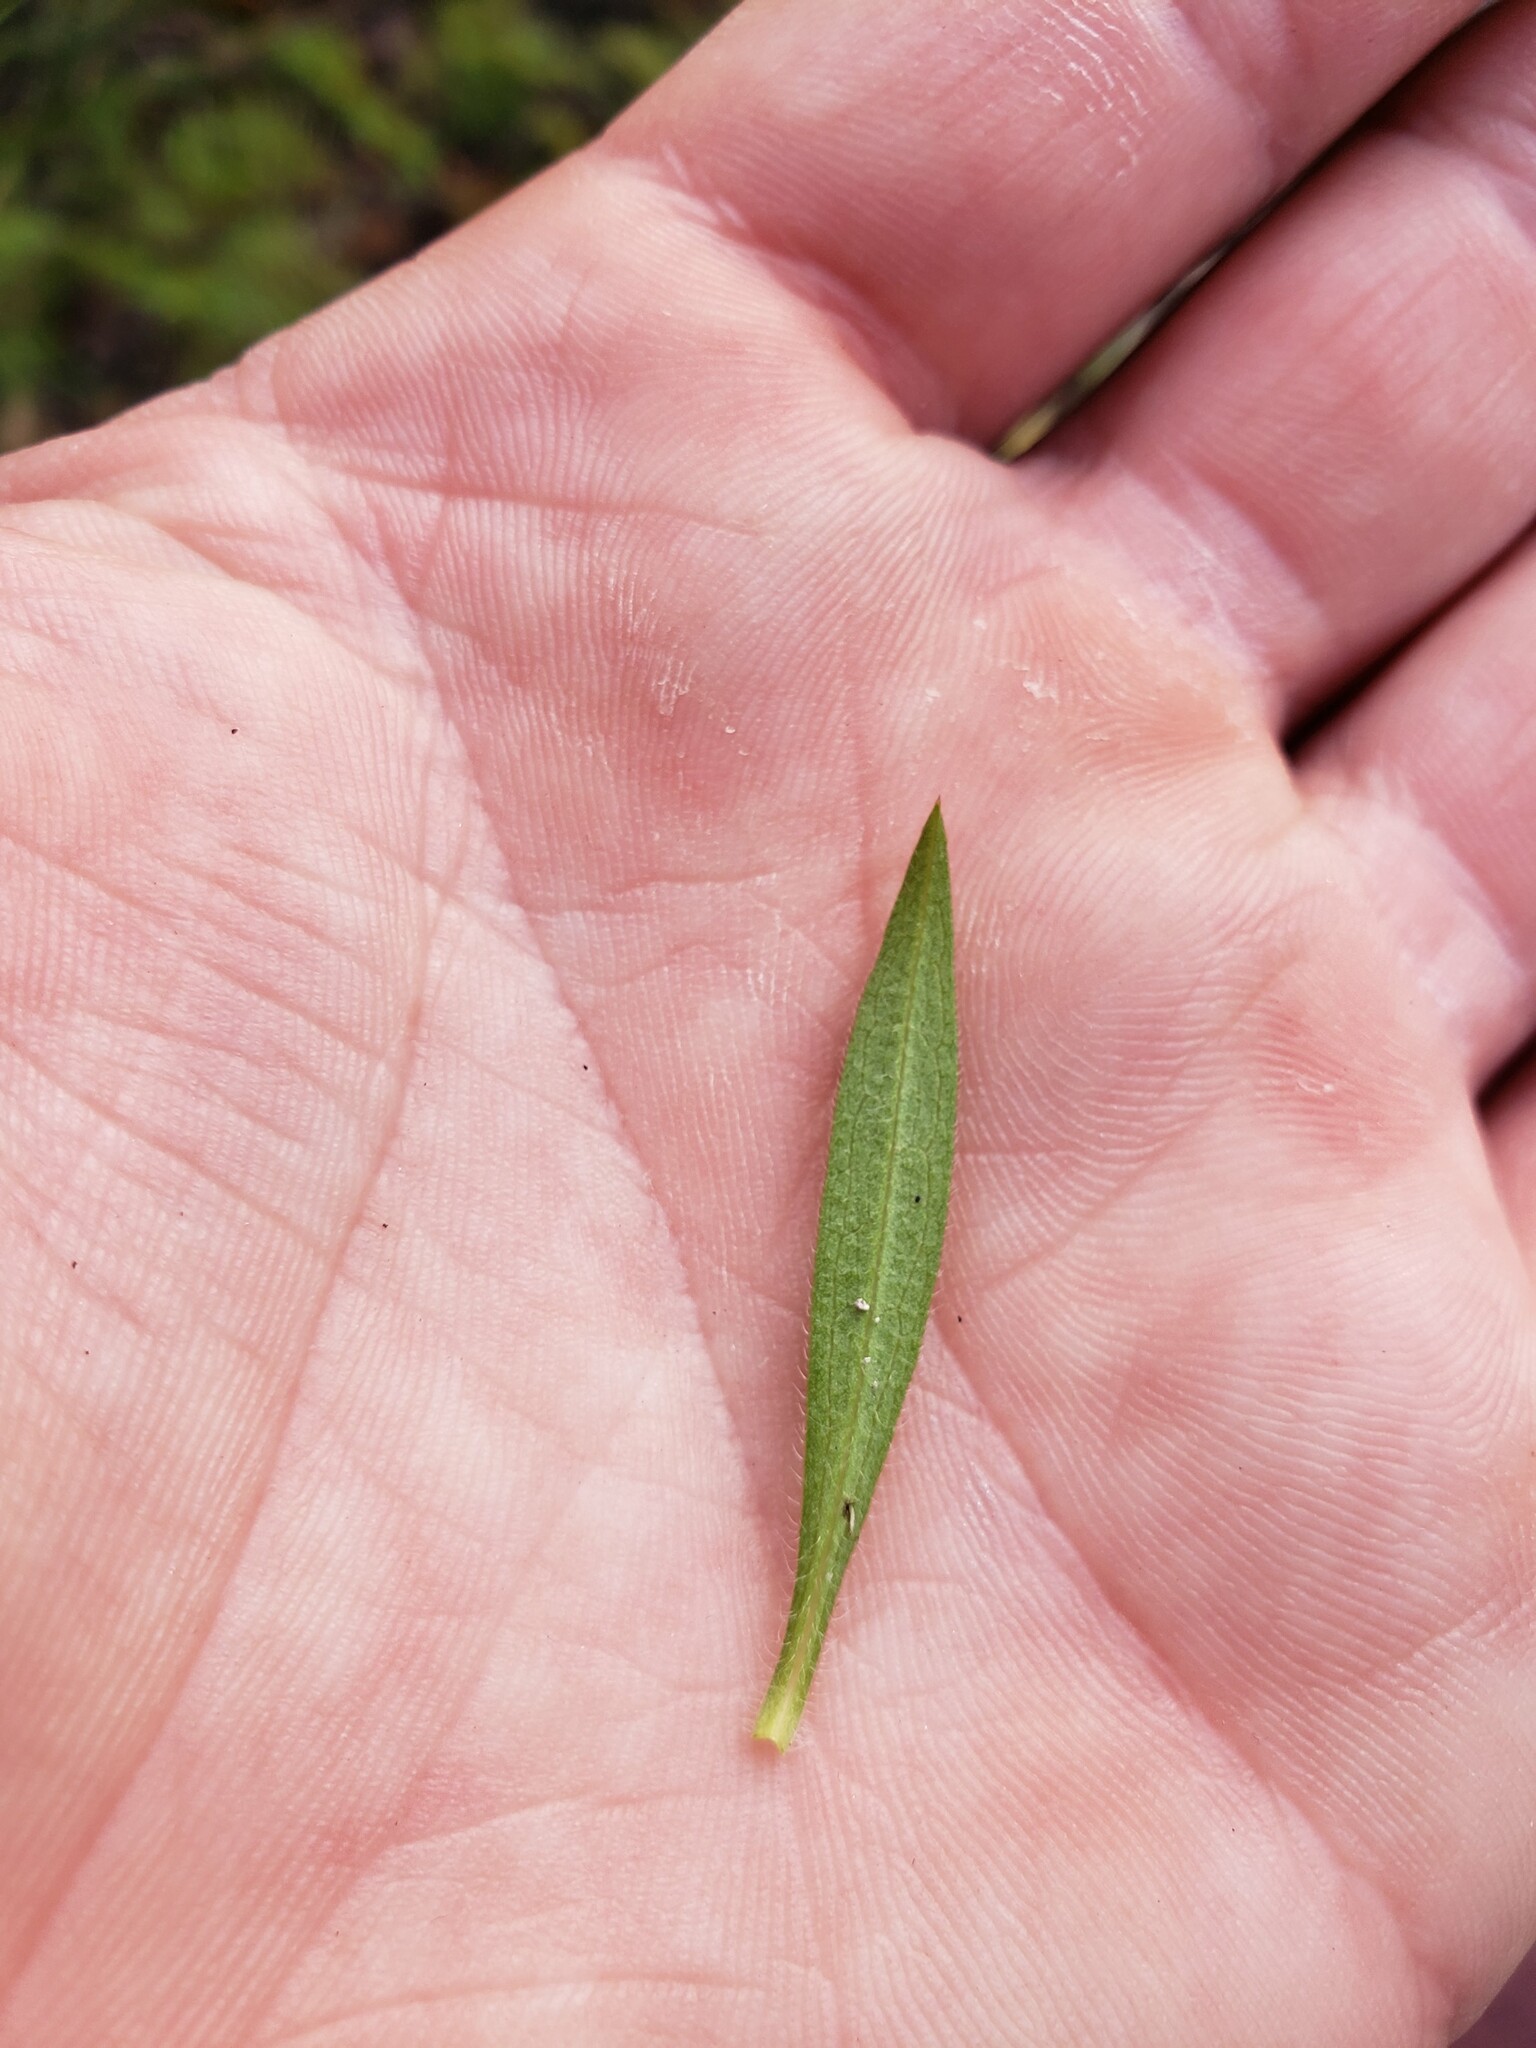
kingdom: Plantae
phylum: Tracheophyta
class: Magnoliopsida
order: Asterales
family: Asteraceae
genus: Symphyotrichum
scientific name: Symphyotrichum pilosum
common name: Awl aster
